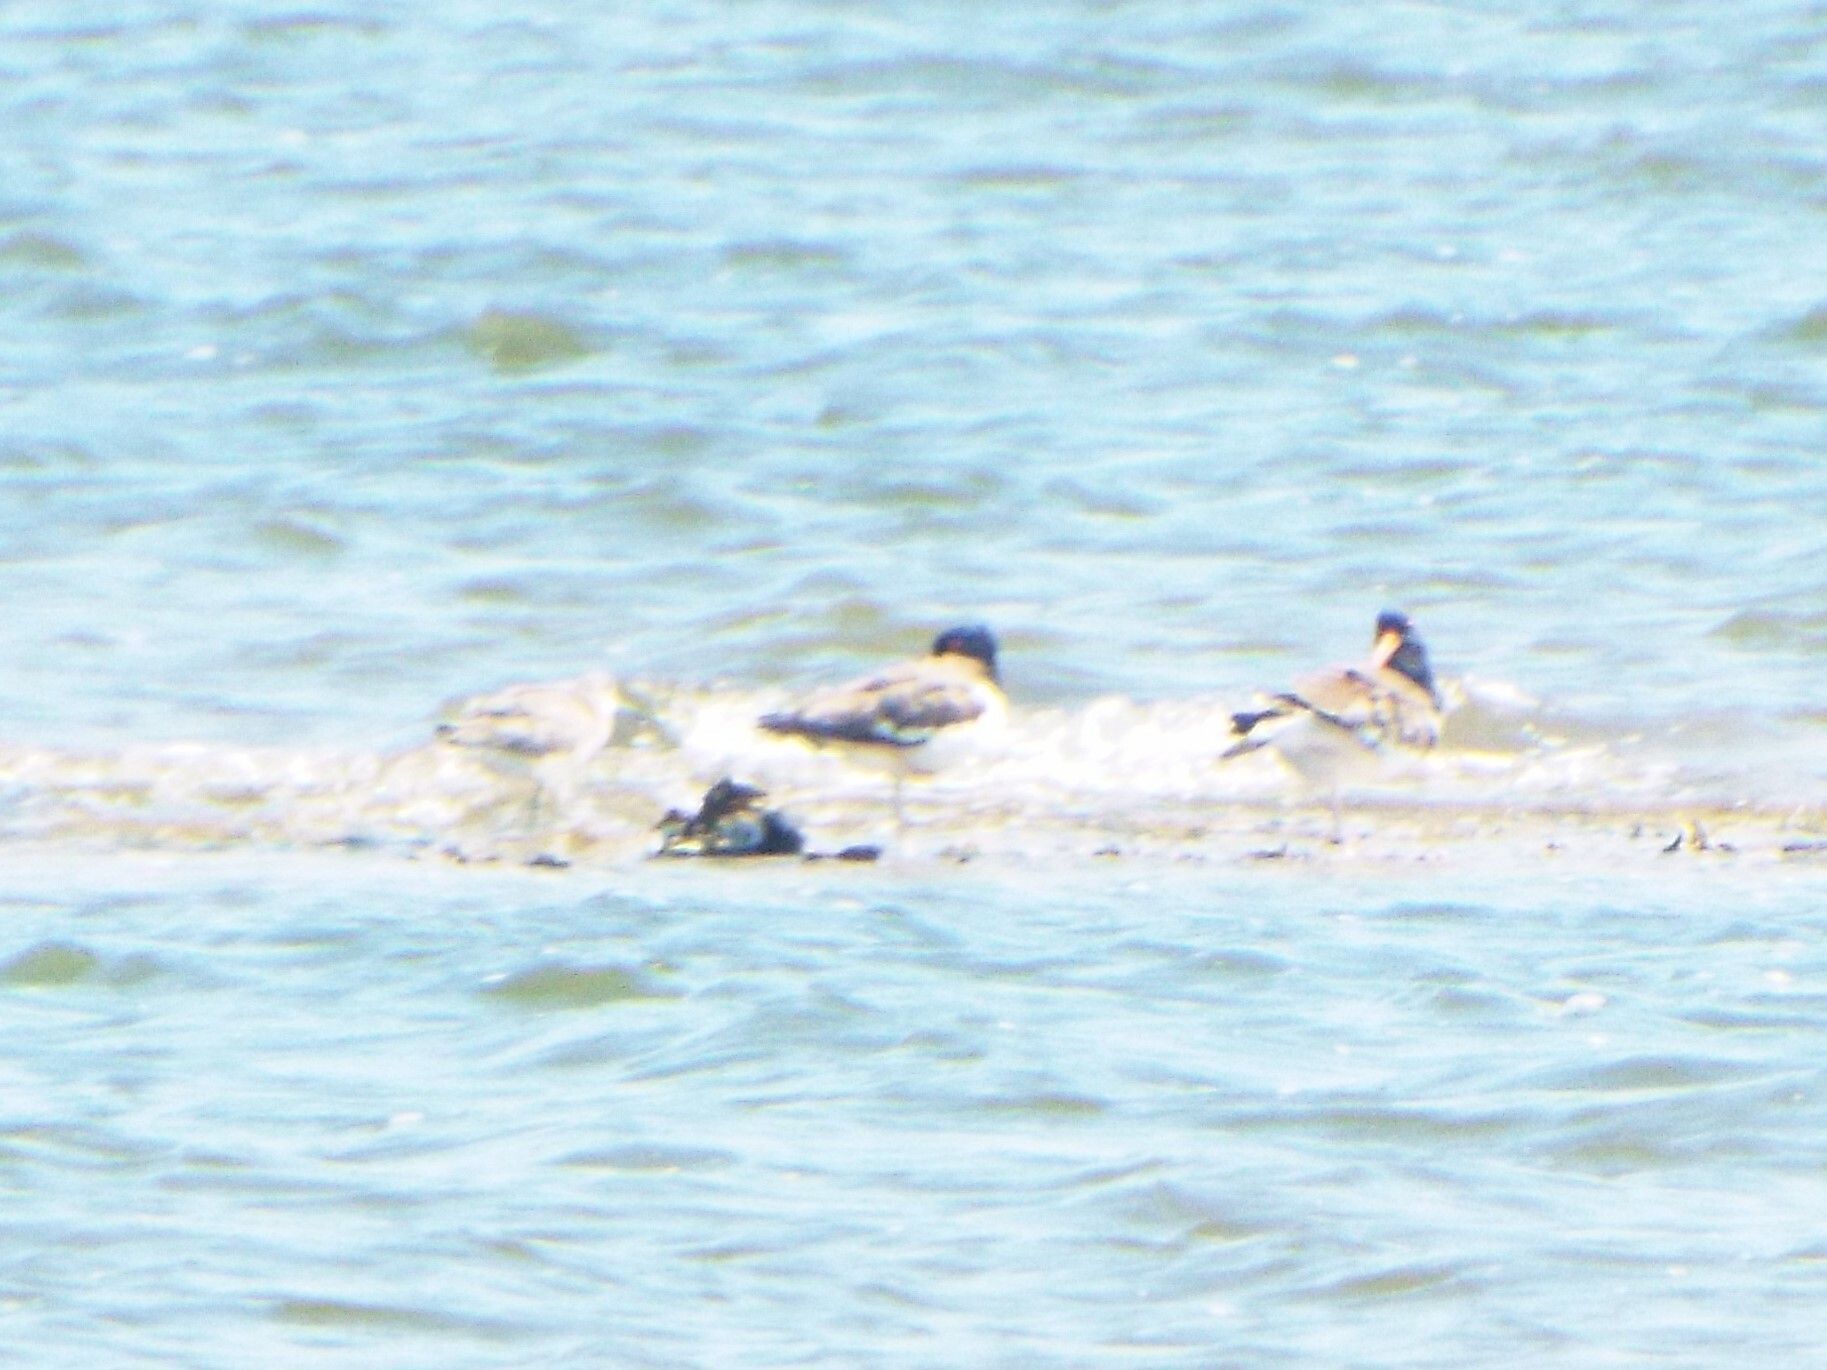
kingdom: Animalia
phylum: Chordata
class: Aves
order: Charadriiformes
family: Haematopodidae
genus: Haematopus
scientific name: Haematopus palliatus
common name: American oystercatcher
